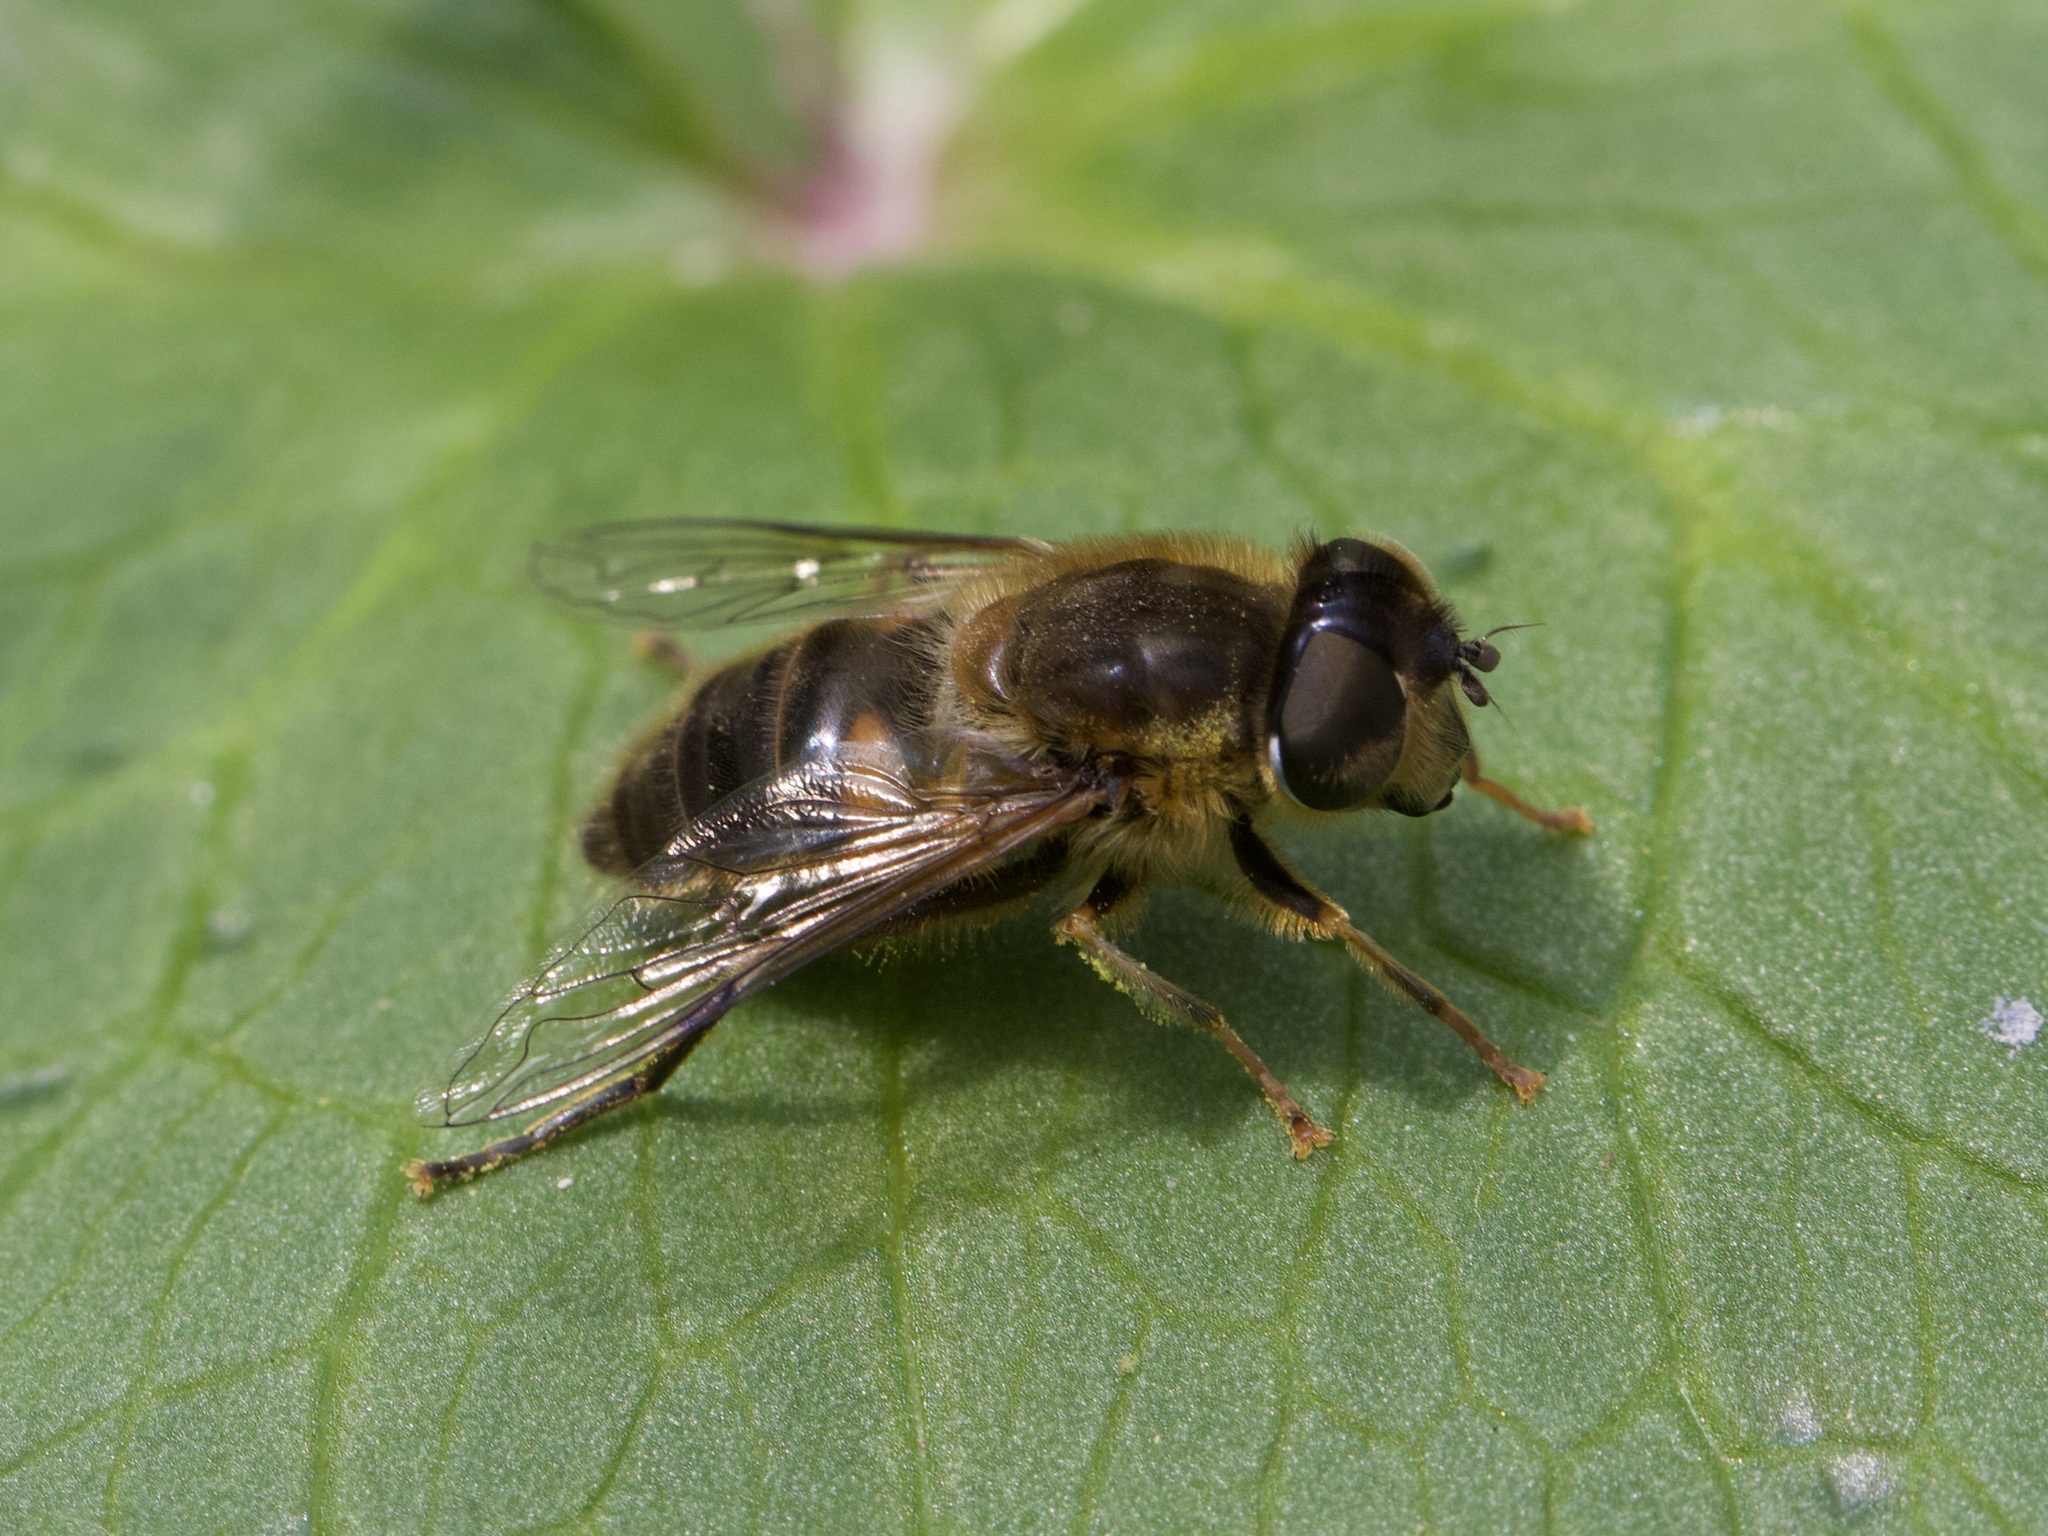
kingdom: Animalia
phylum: Arthropoda
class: Insecta
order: Diptera
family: Syrphidae
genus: Eristalis
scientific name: Eristalis pertinax
